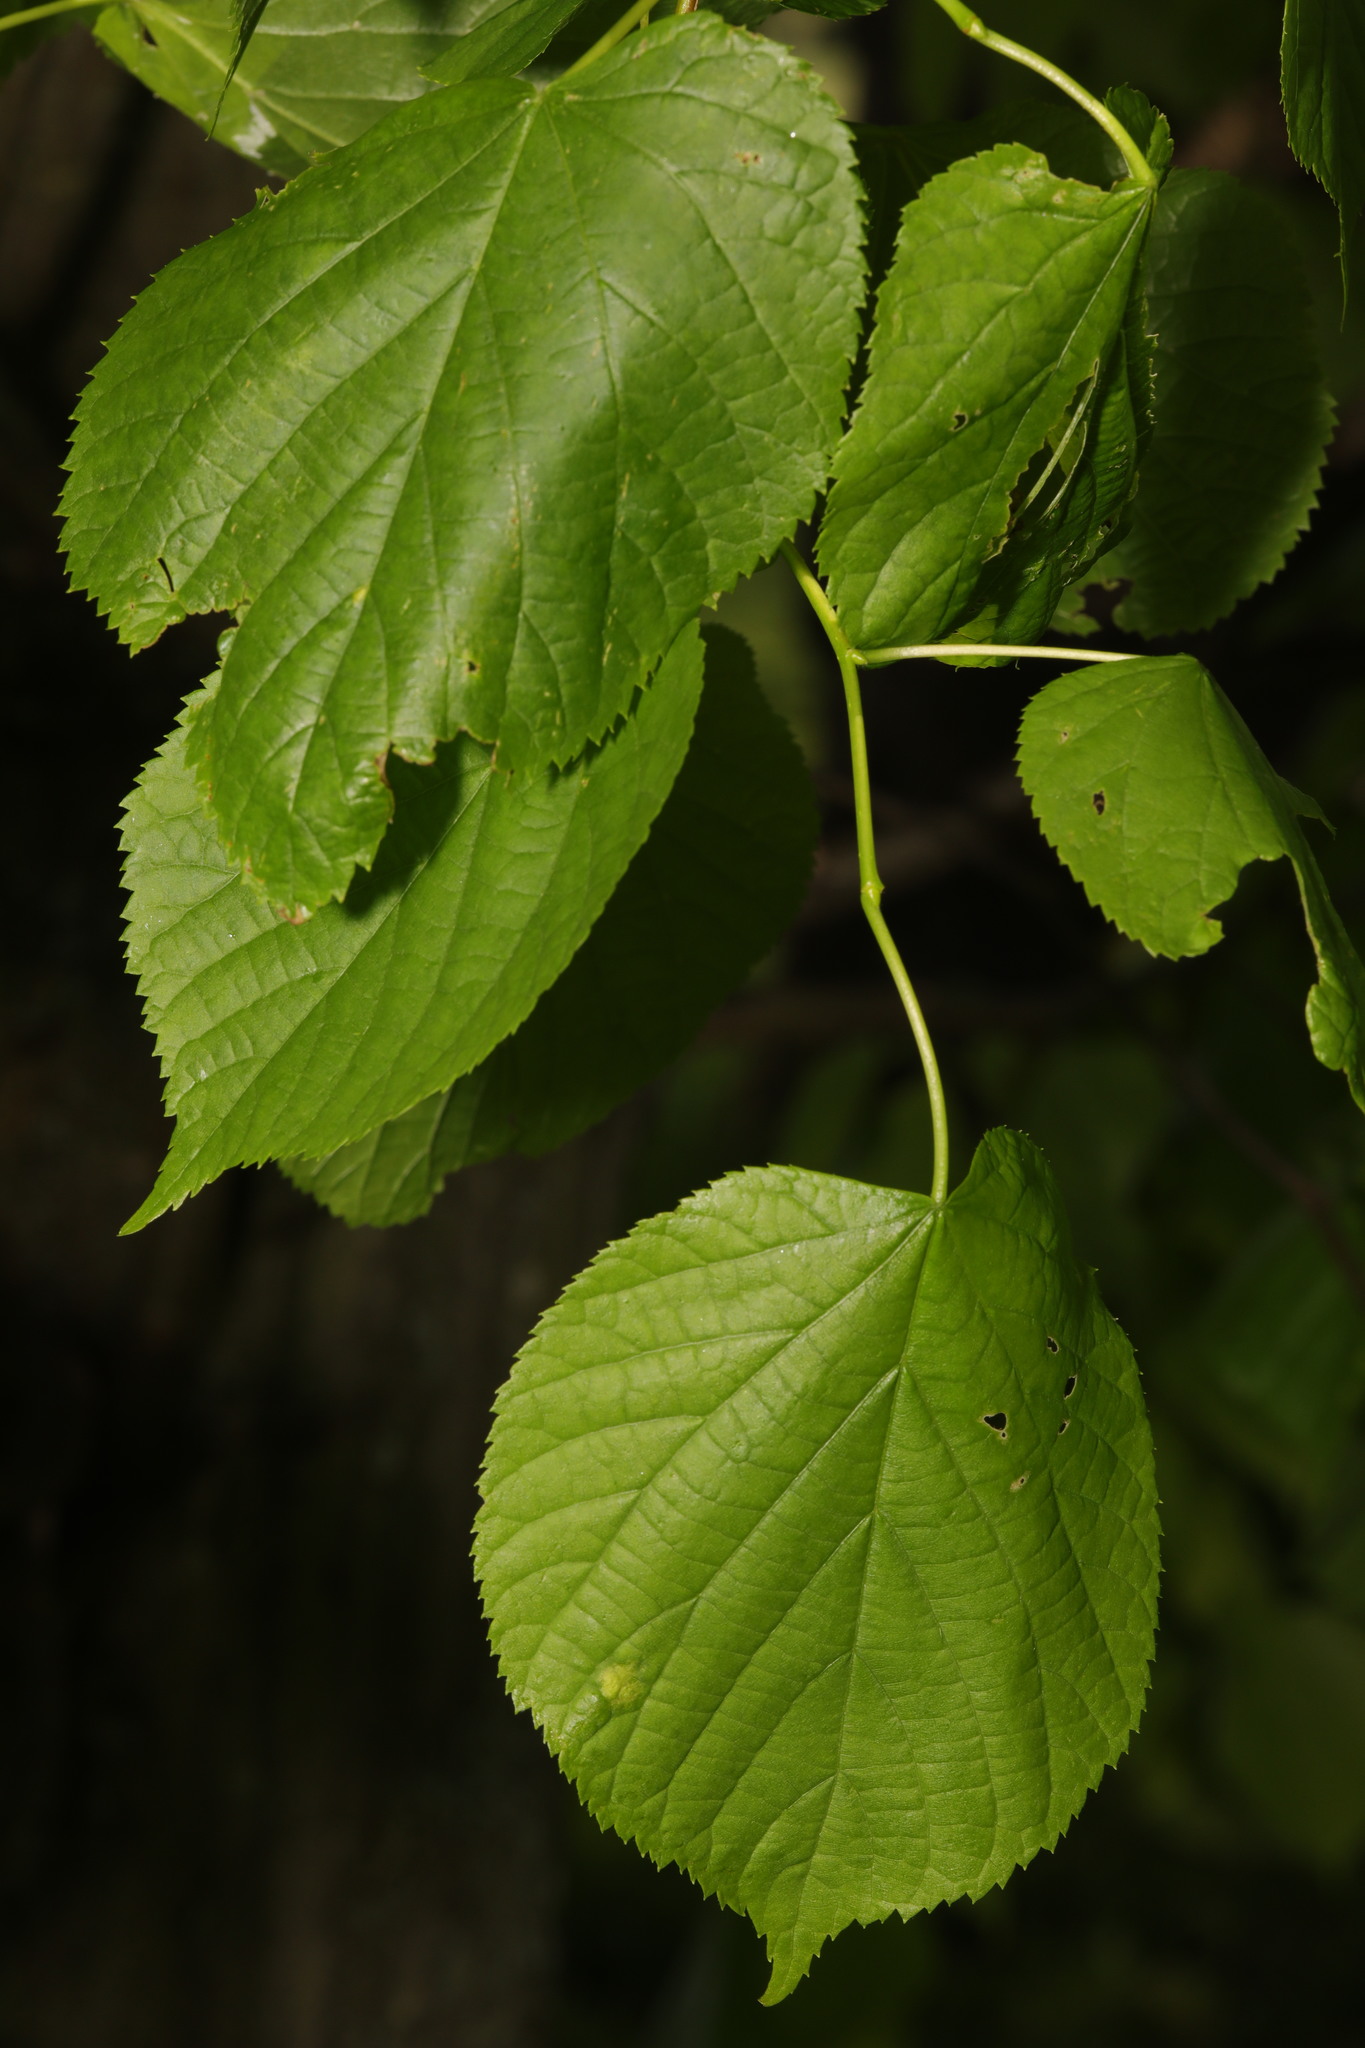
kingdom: Plantae
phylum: Tracheophyta
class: Magnoliopsida
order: Malvales
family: Malvaceae
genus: Tilia
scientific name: Tilia europaea
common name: European linden
